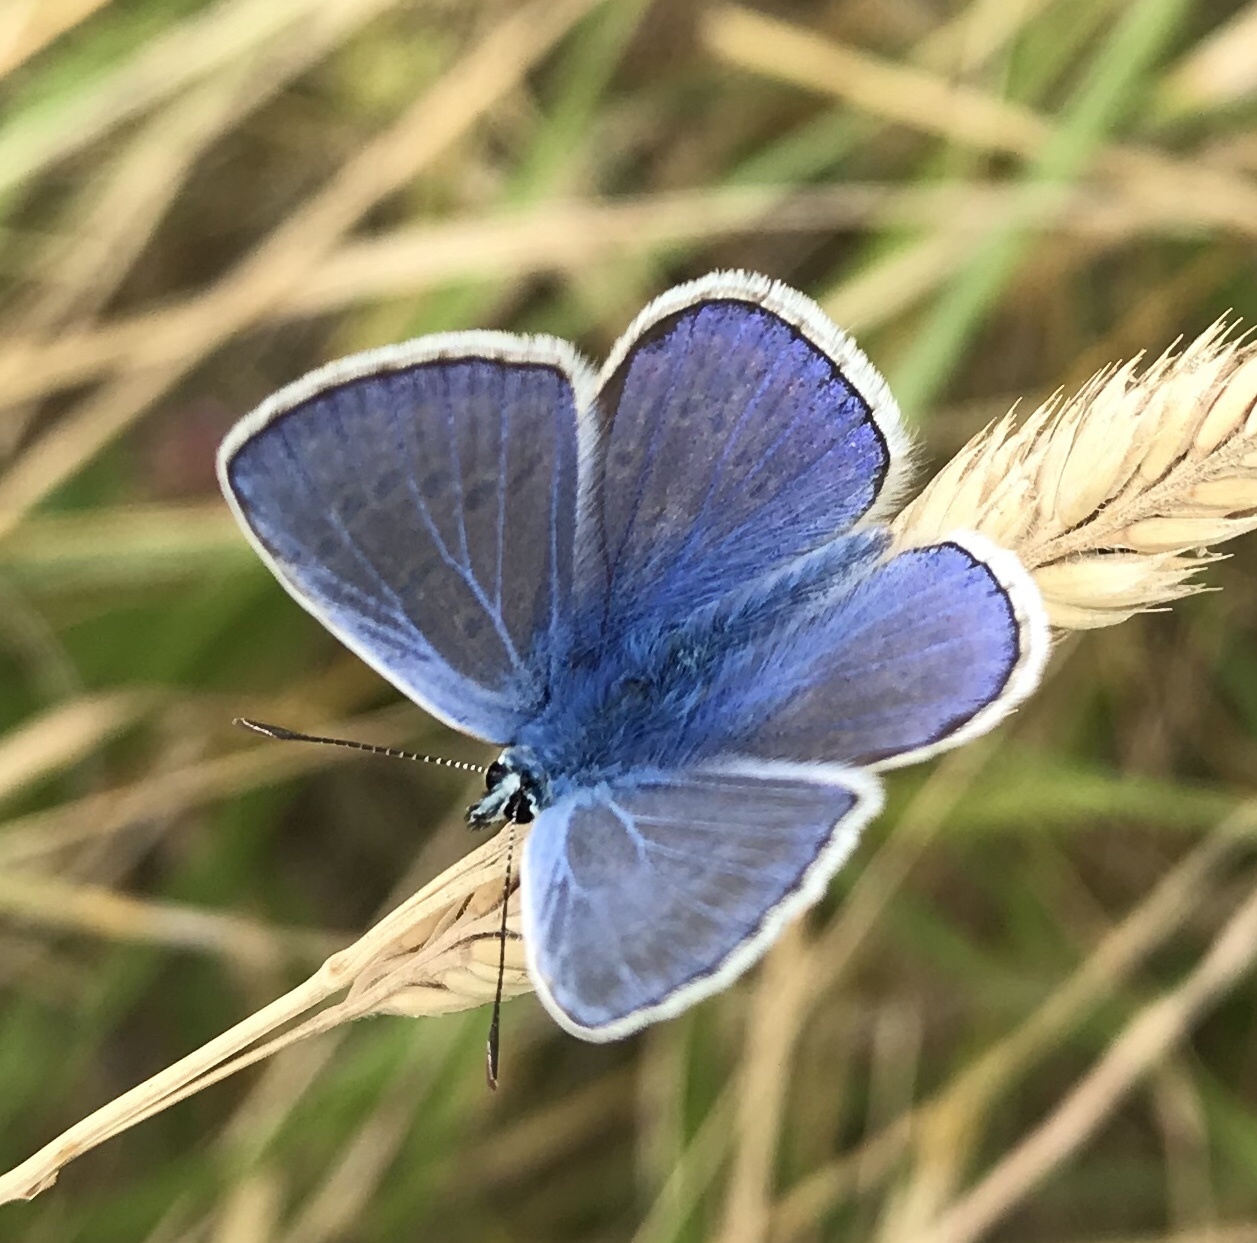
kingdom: Animalia
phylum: Arthropoda
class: Insecta
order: Lepidoptera
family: Lycaenidae
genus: Polyommatus
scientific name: Polyommatus icarus
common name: Common blue
